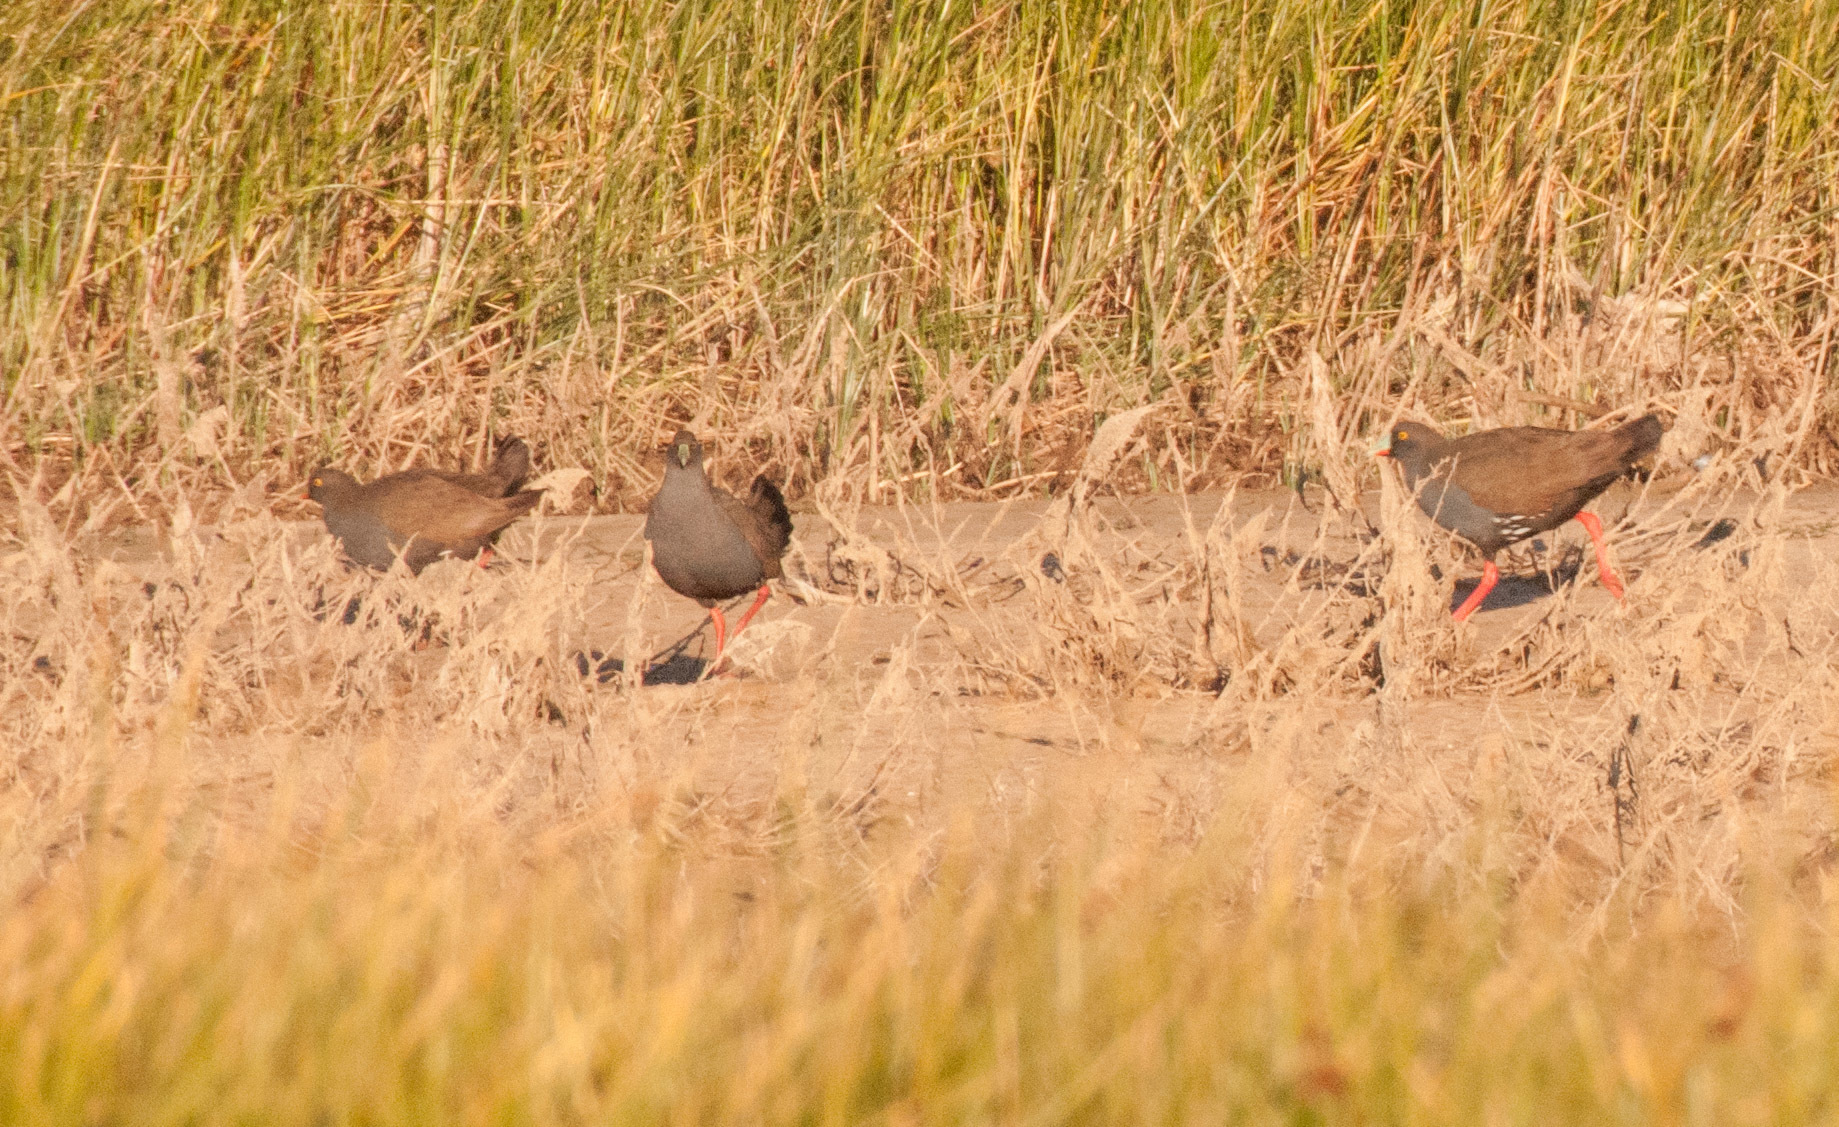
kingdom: Animalia
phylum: Chordata
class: Aves
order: Gruiformes
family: Rallidae
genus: Gallinula
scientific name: Gallinula ventralis
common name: Black-tailed nativehen
